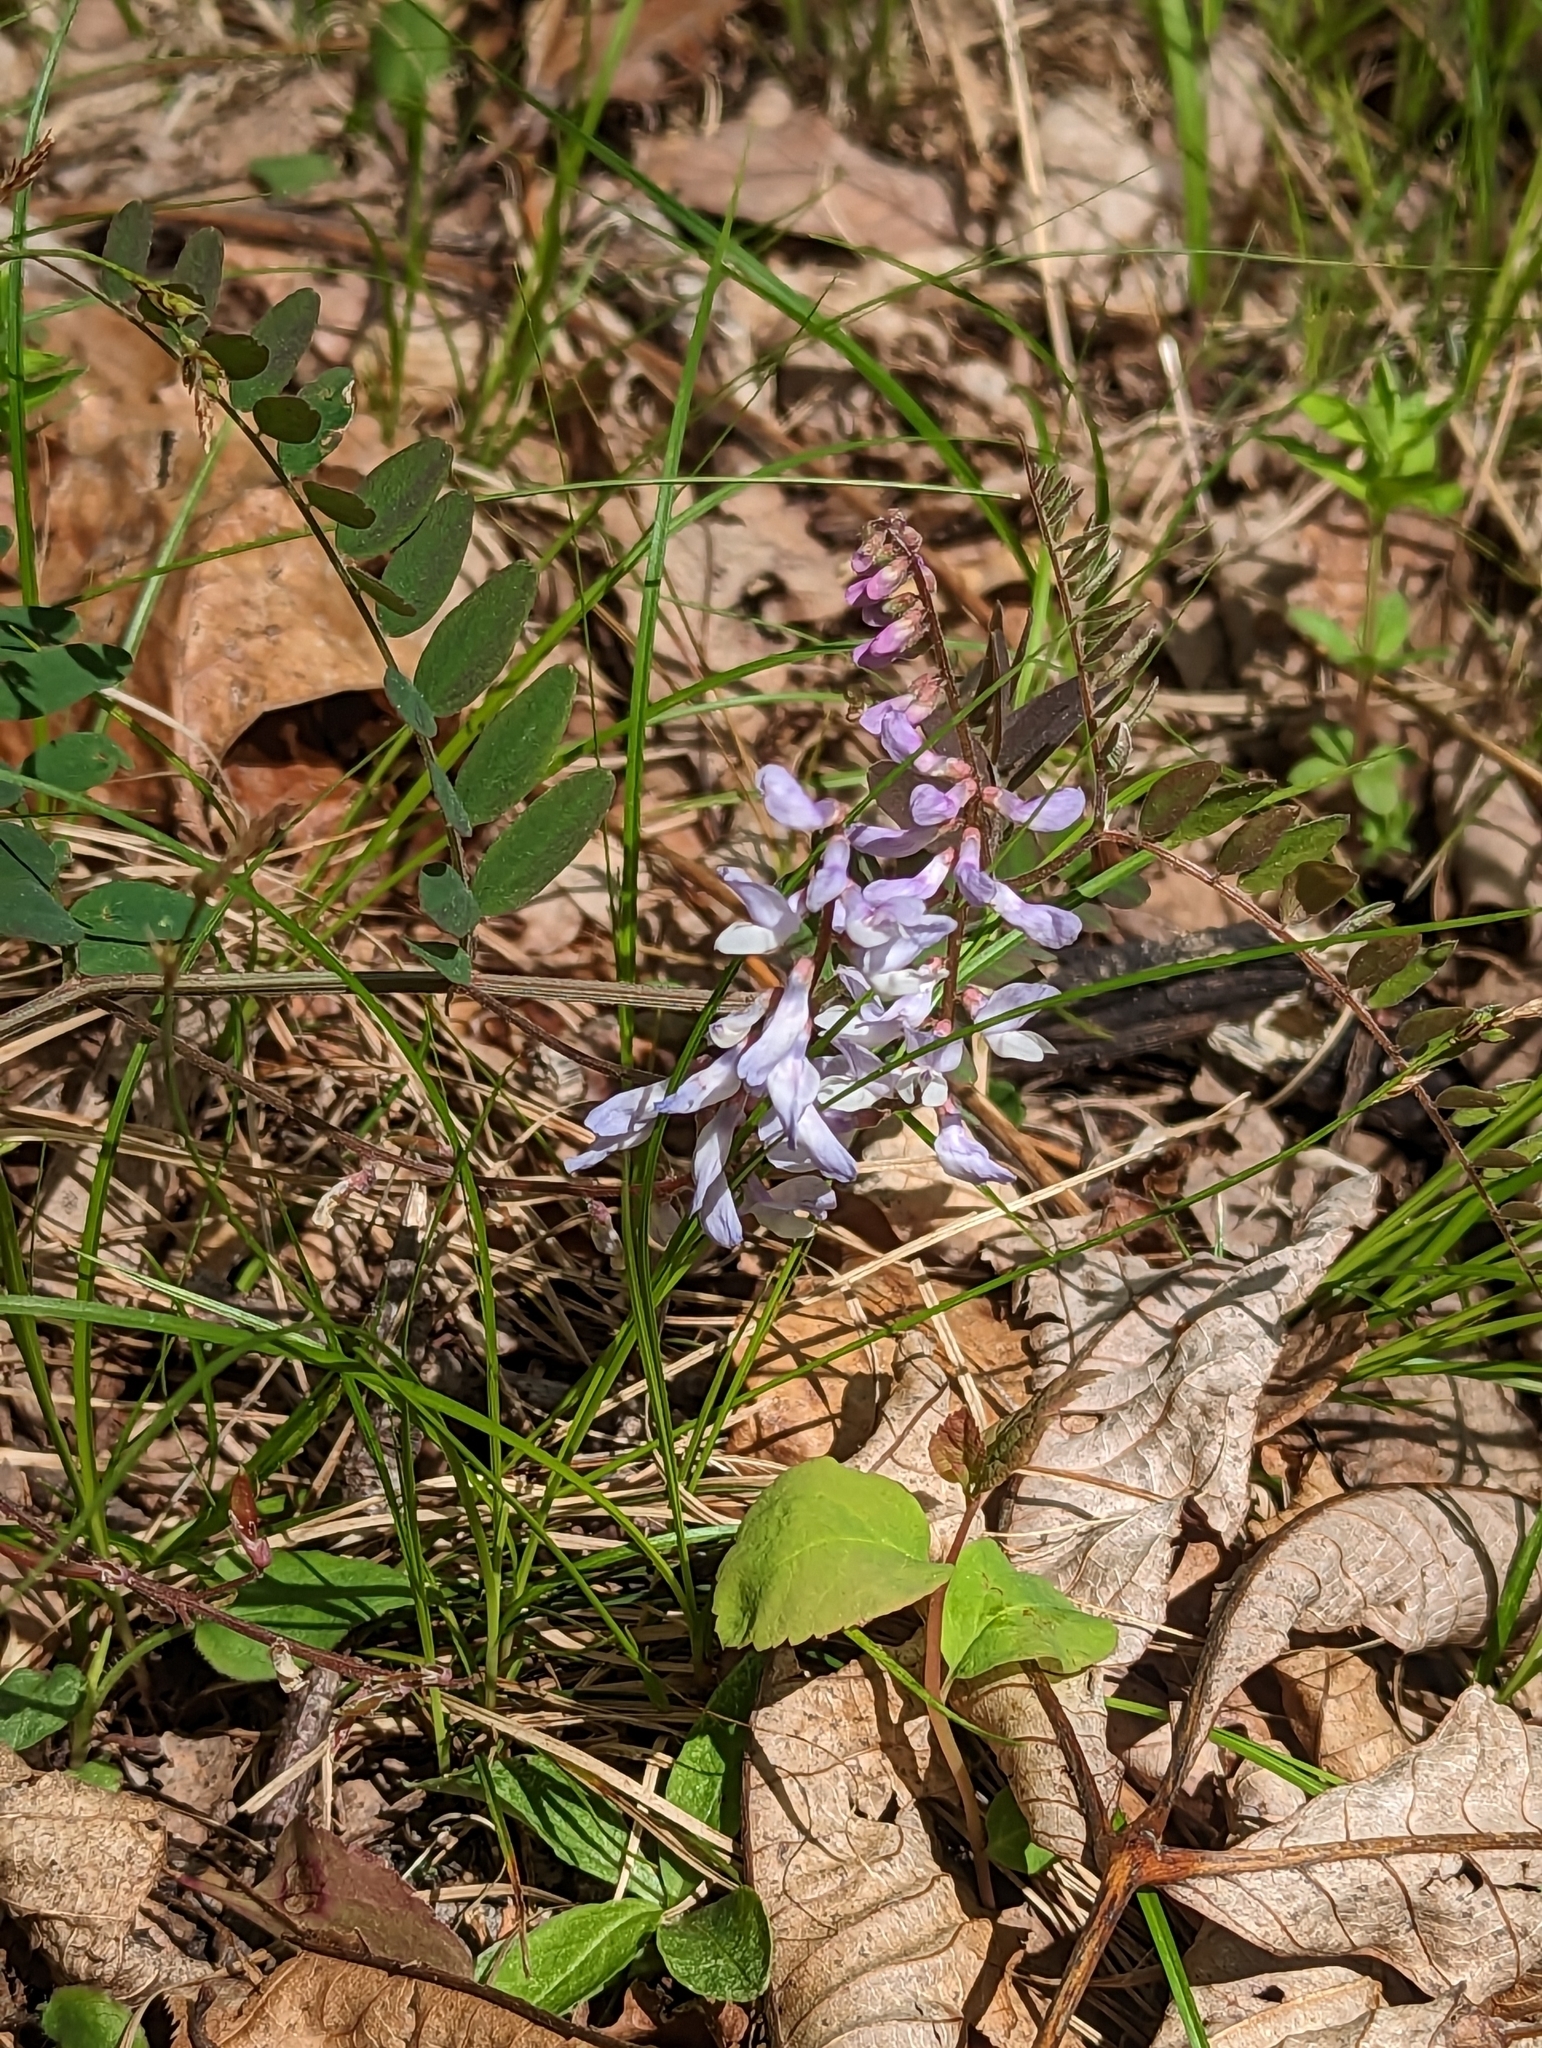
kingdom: Plantae
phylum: Tracheophyta
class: Magnoliopsida
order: Fabales
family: Fabaceae
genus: Vicia
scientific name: Vicia caroliniana
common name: Carolina vetch
